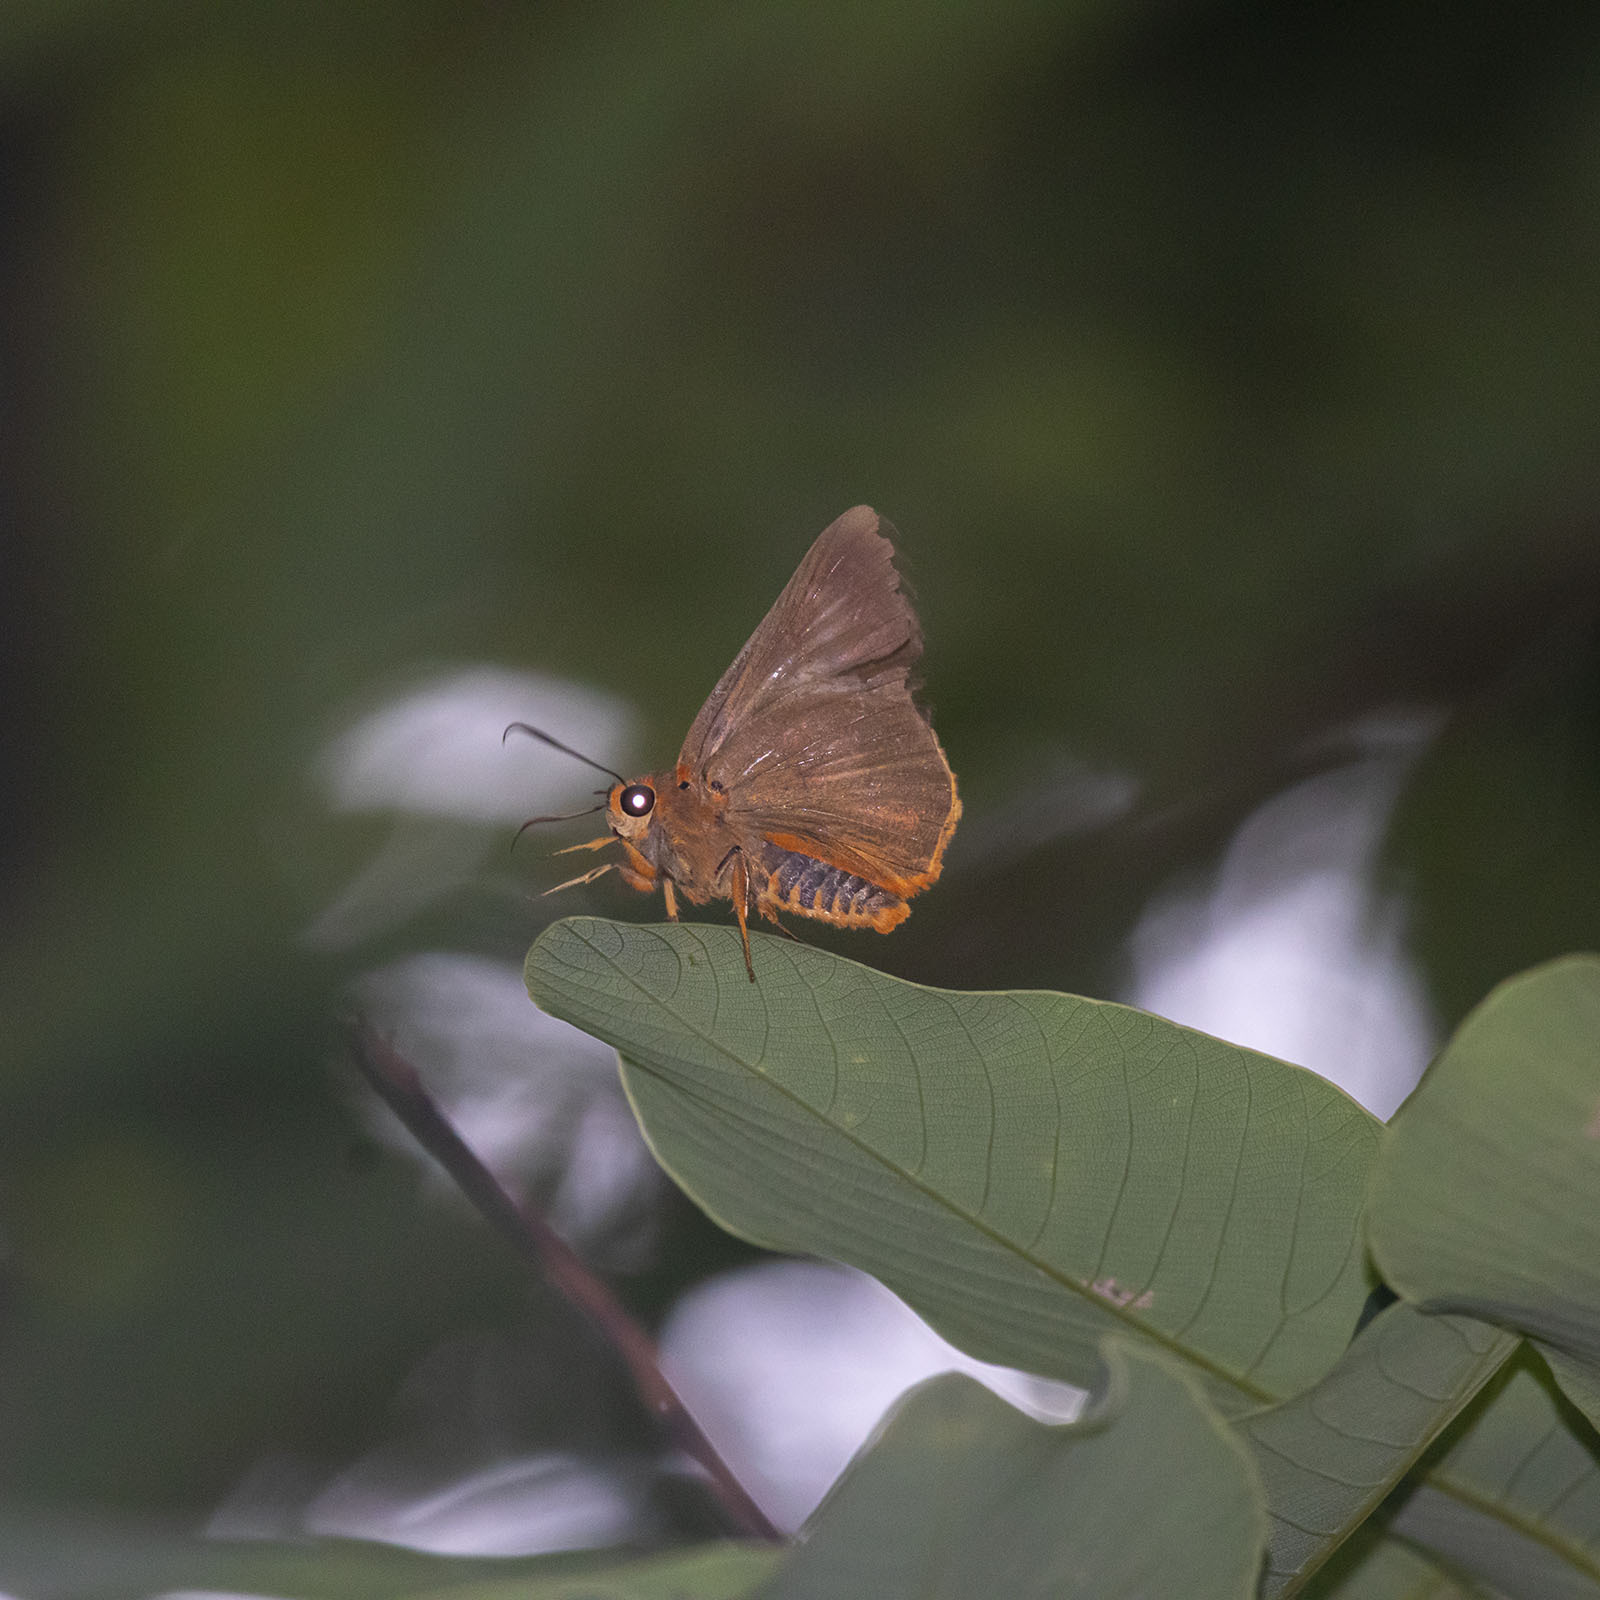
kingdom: Animalia
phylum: Arthropoda
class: Insecta
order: Lepidoptera
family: Hesperiidae
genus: Bibasis
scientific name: Bibasis jaina
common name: Common orange awlet
